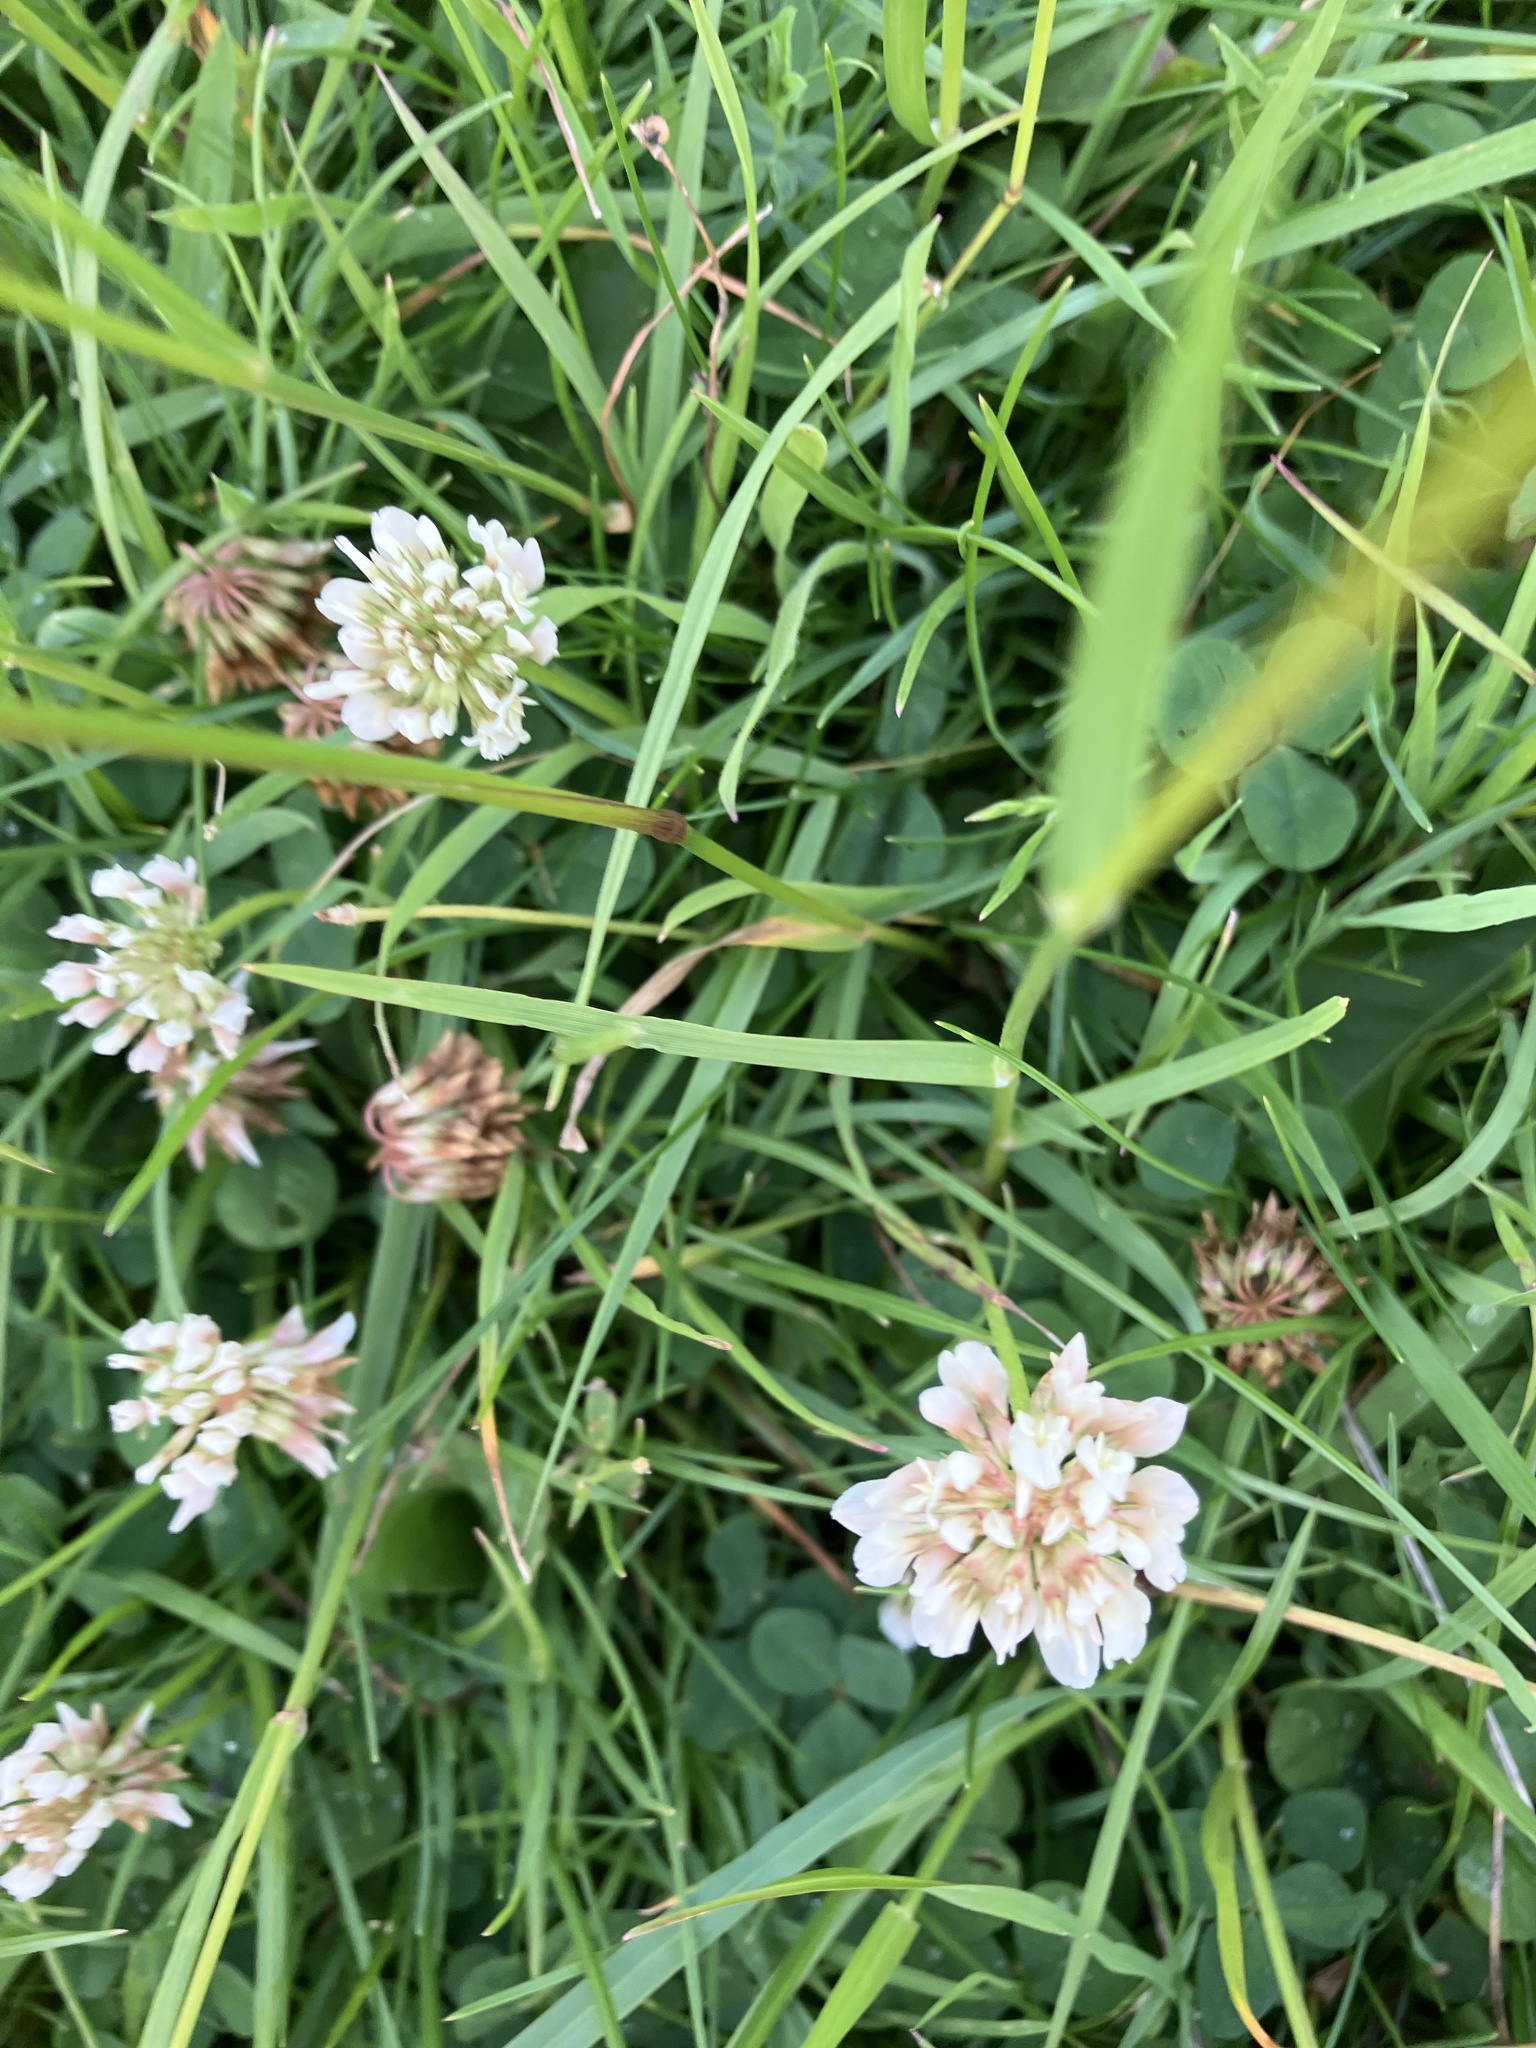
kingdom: Plantae
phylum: Tracheophyta
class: Magnoliopsida
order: Fabales
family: Fabaceae
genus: Trifolium
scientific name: Trifolium repens
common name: White clover
